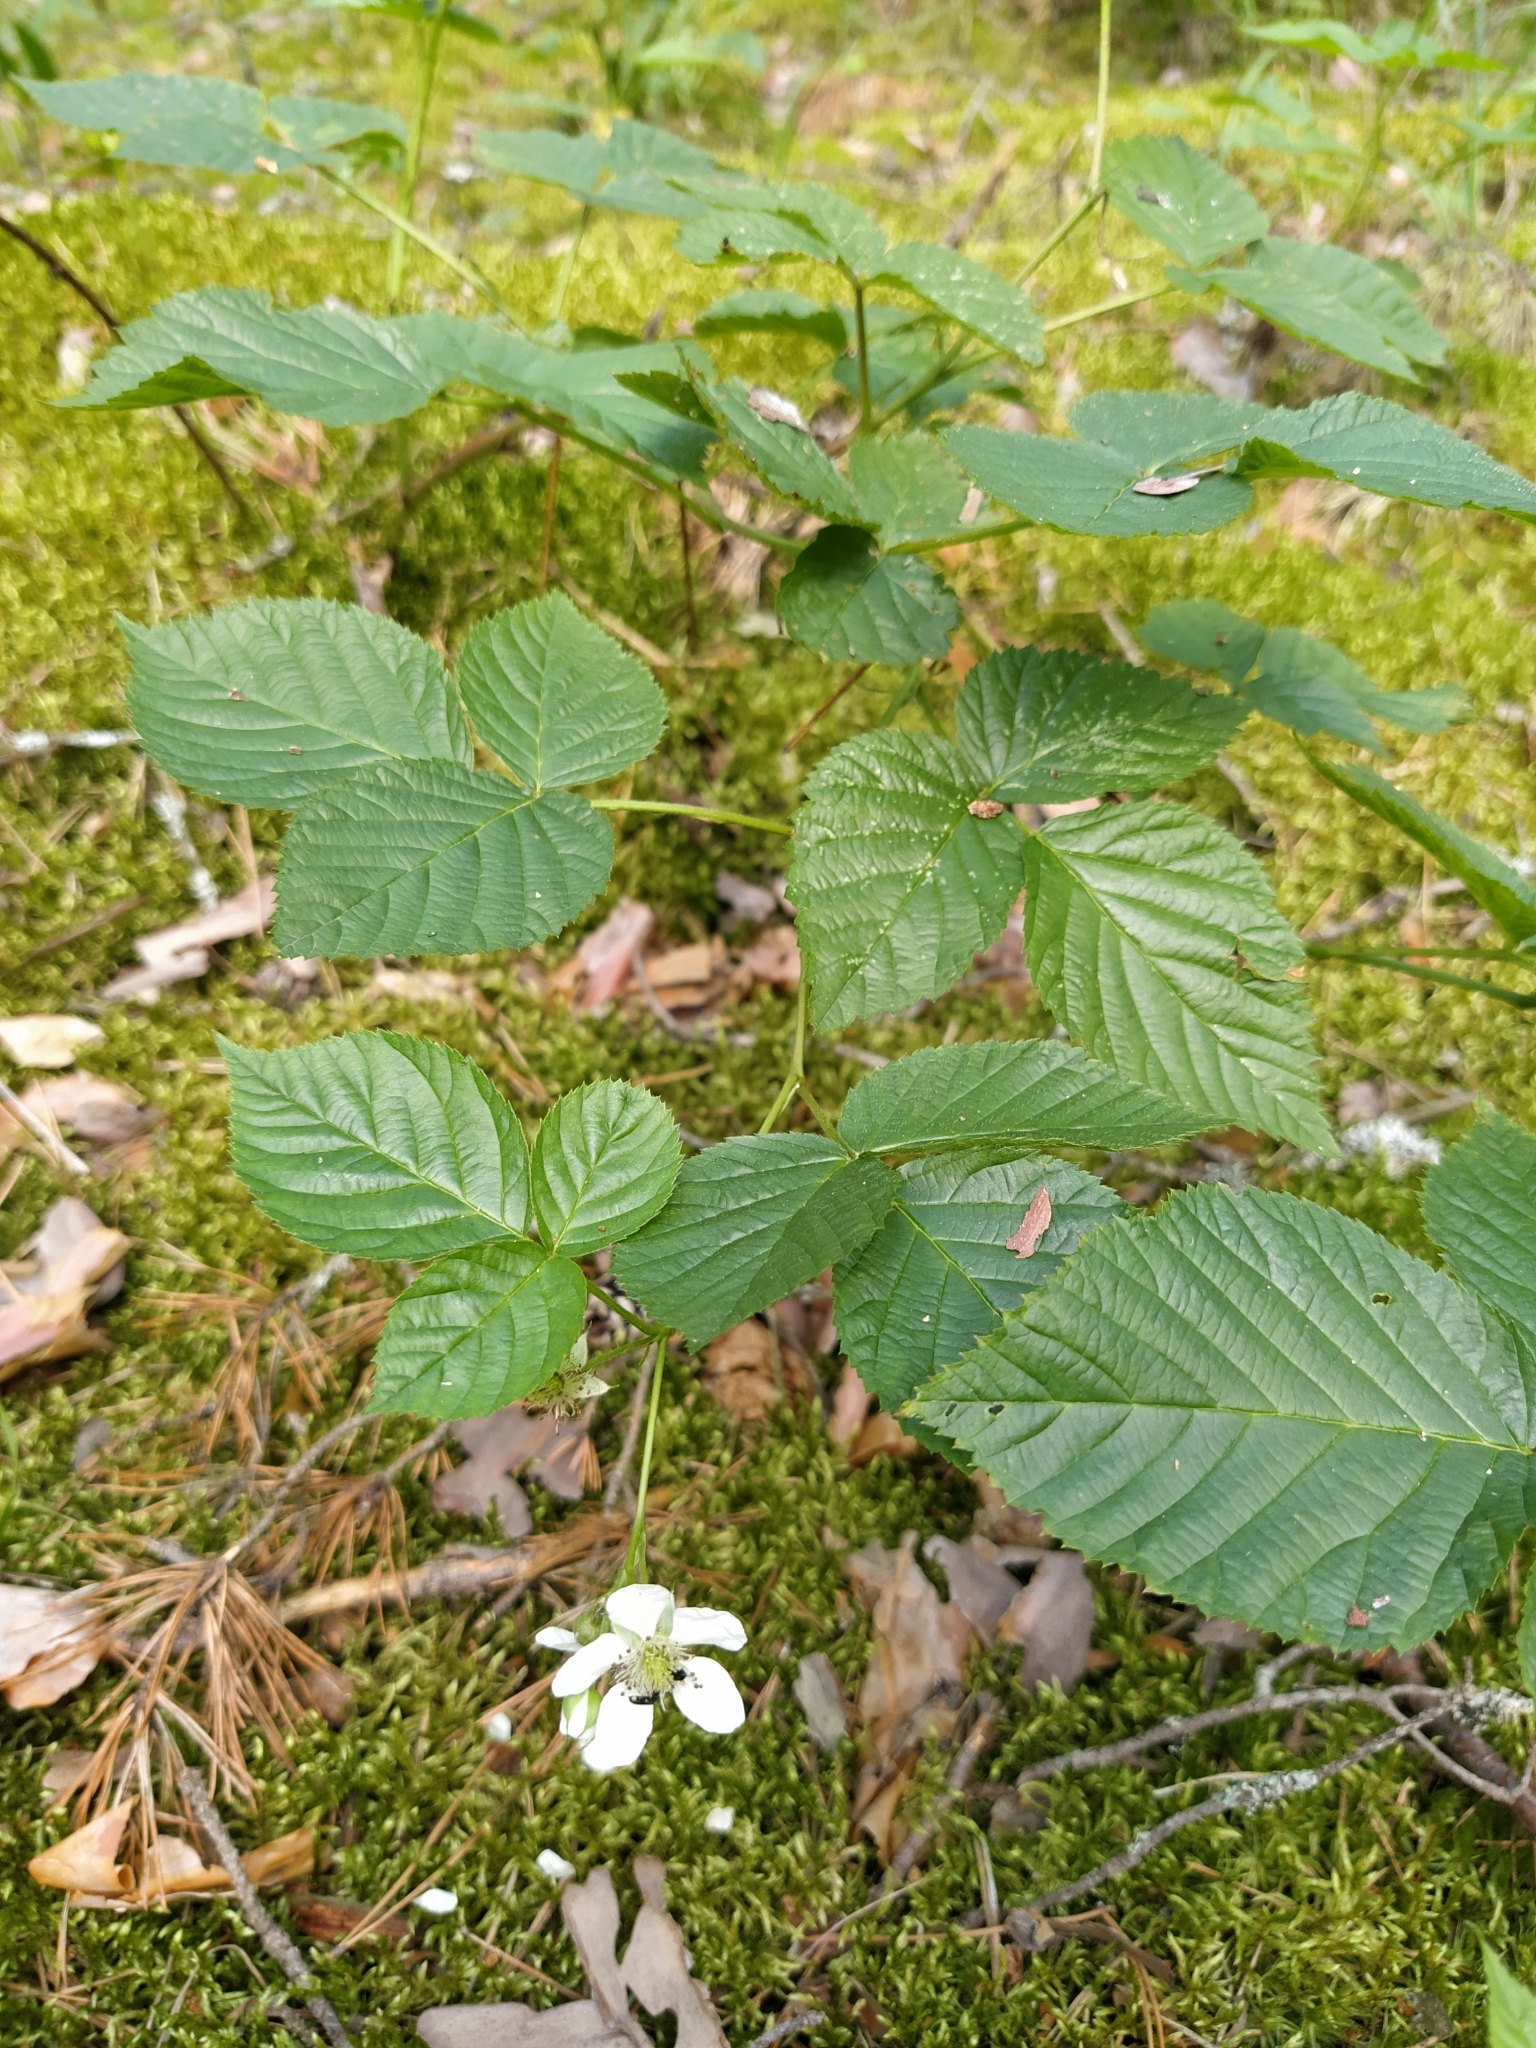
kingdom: Plantae
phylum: Tracheophyta
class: Magnoliopsida
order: Rosales
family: Rosaceae
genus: Rubus
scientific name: Rubus polonicus
